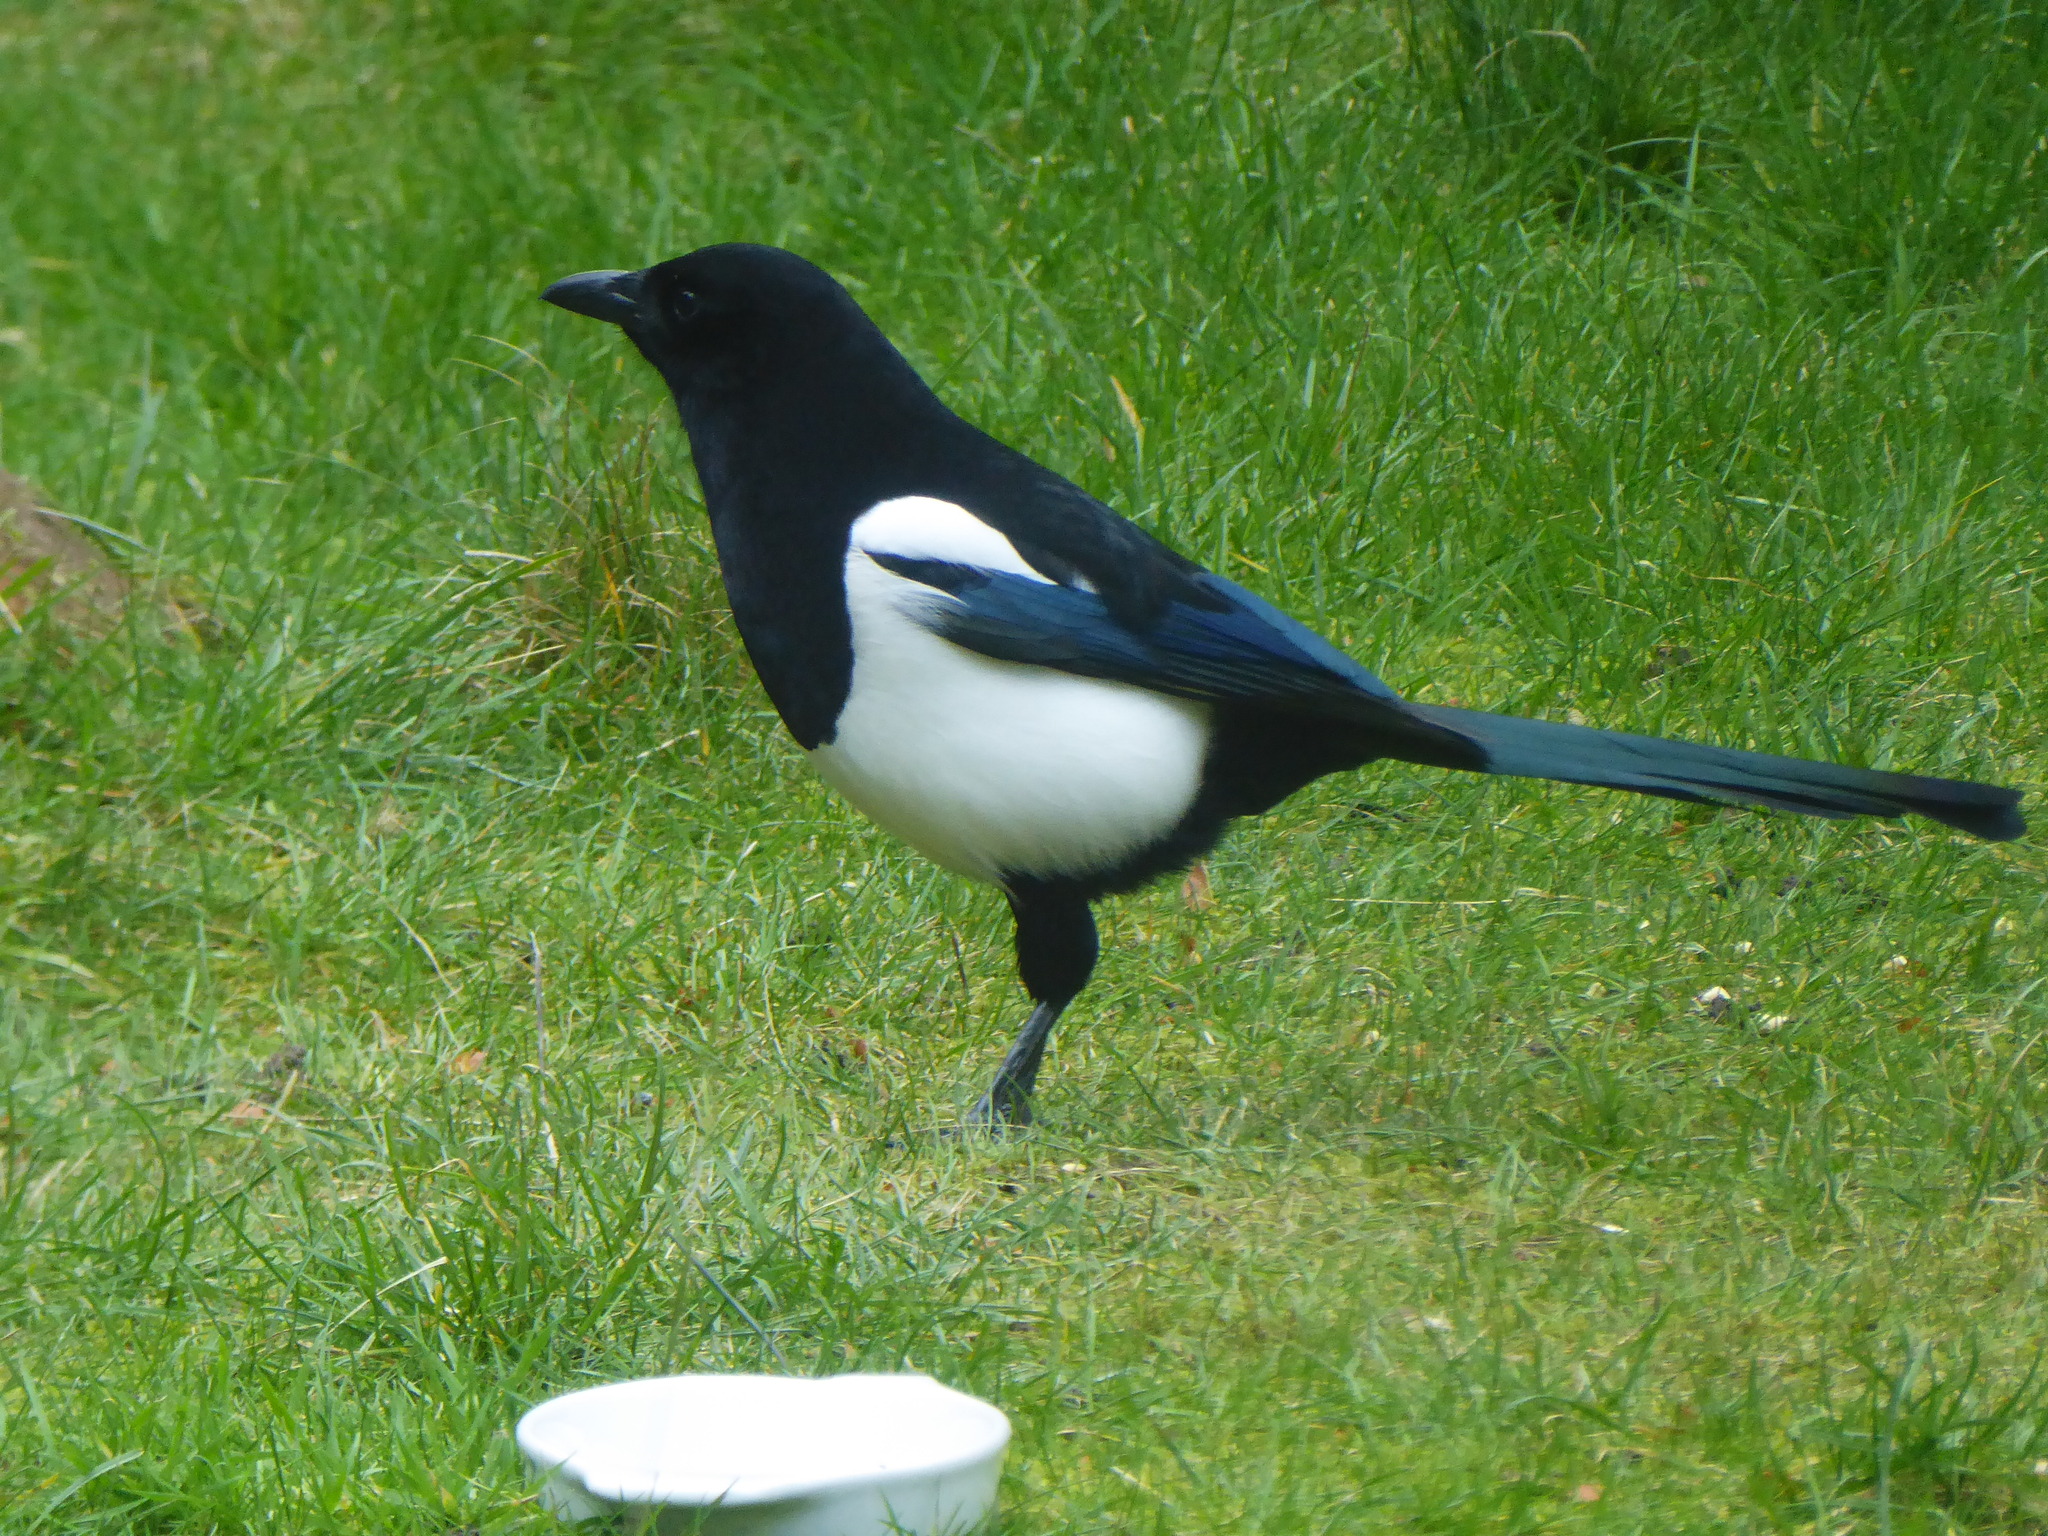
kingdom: Animalia
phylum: Chordata
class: Aves
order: Passeriformes
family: Corvidae
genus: Pica
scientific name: Pica pica
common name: Eurasian magpie
